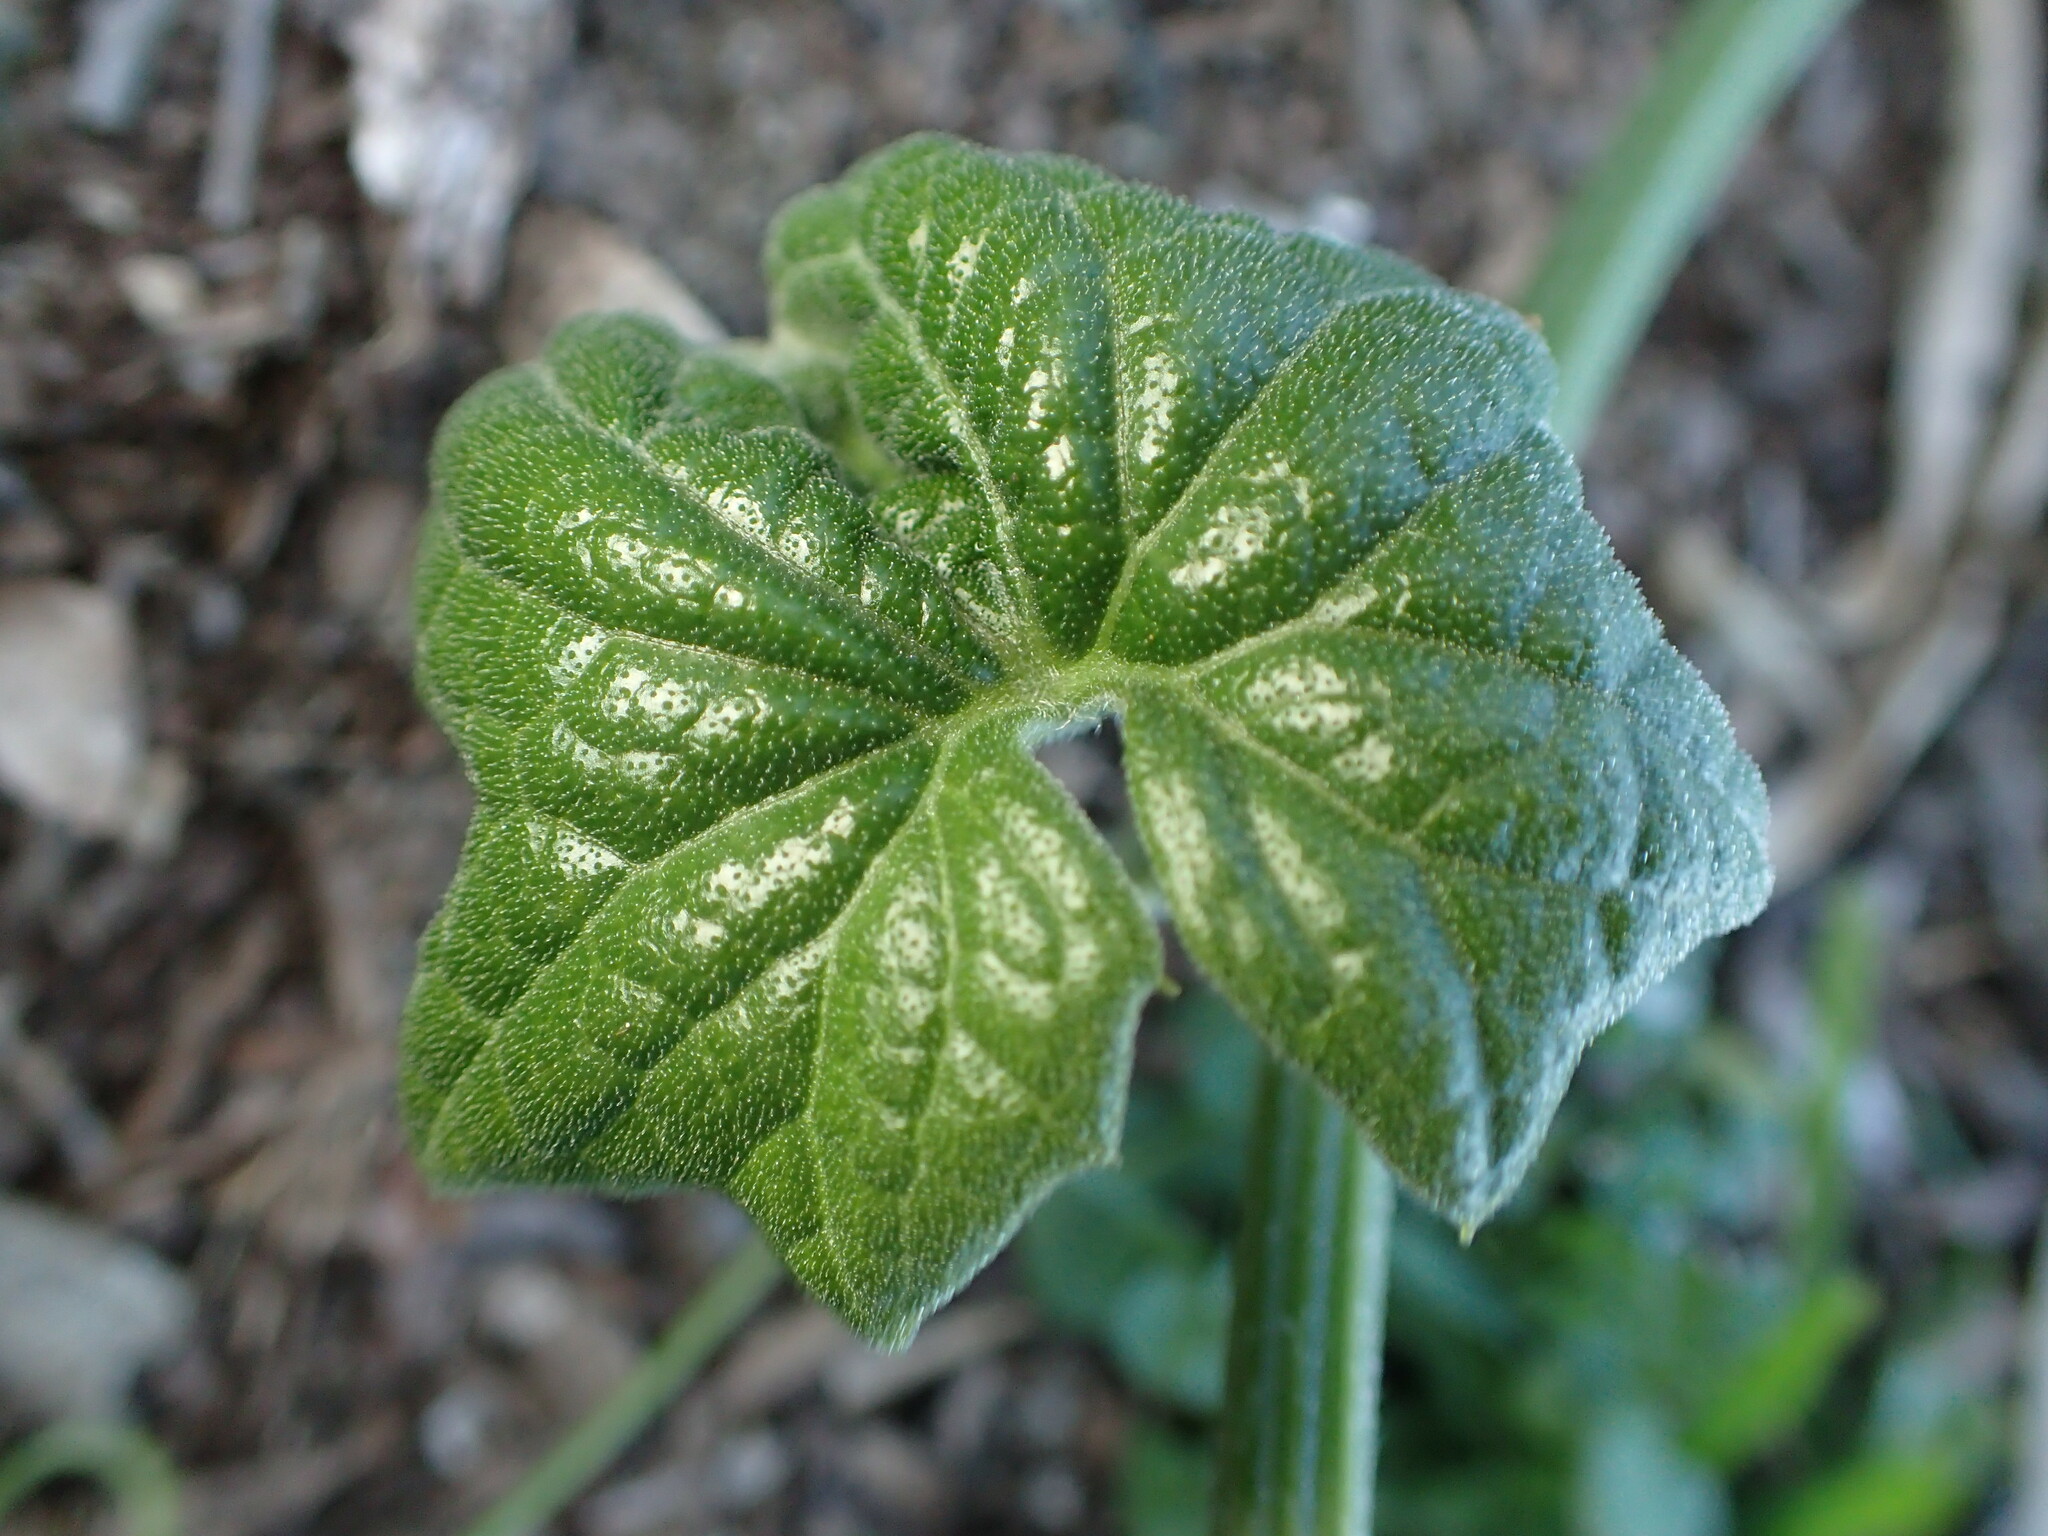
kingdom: Plantae
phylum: Tracheophyta
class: Magnoliopsida
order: Cucurbitales
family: Cucurbitaceae
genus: Marah
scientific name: Marah fabacea
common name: California manroot
